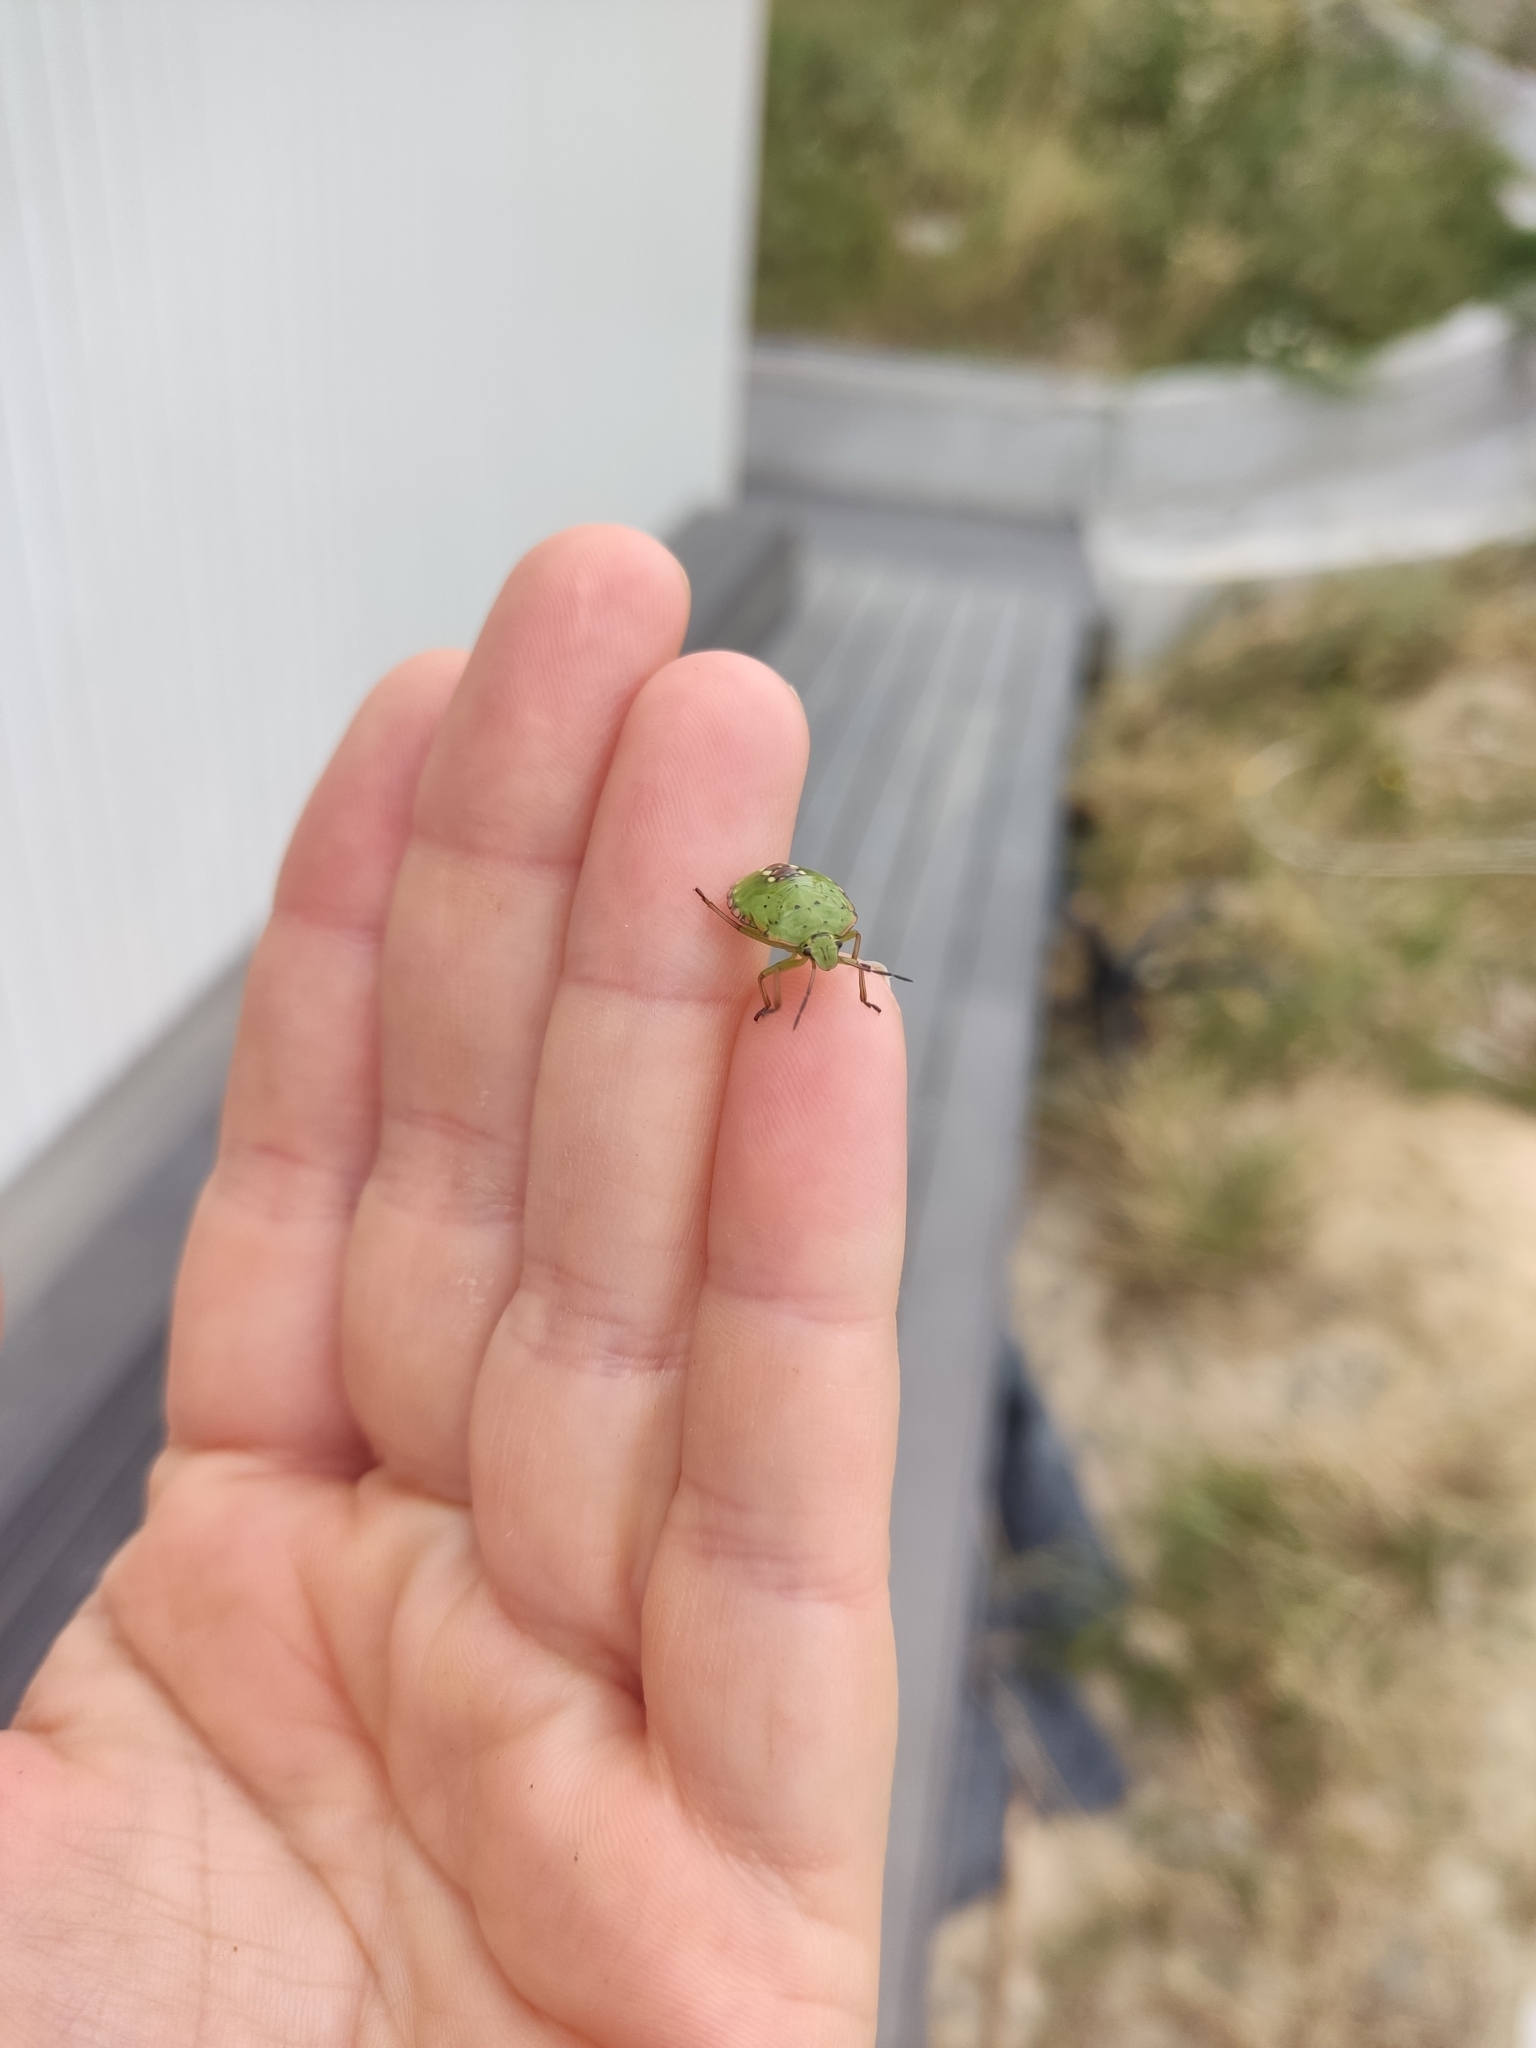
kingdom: Animalia
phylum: Arthropoda
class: Insecta
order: Hemiptera
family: Pentatomidae
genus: Nezara
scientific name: Nezara viridula
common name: Southern green stink bug
